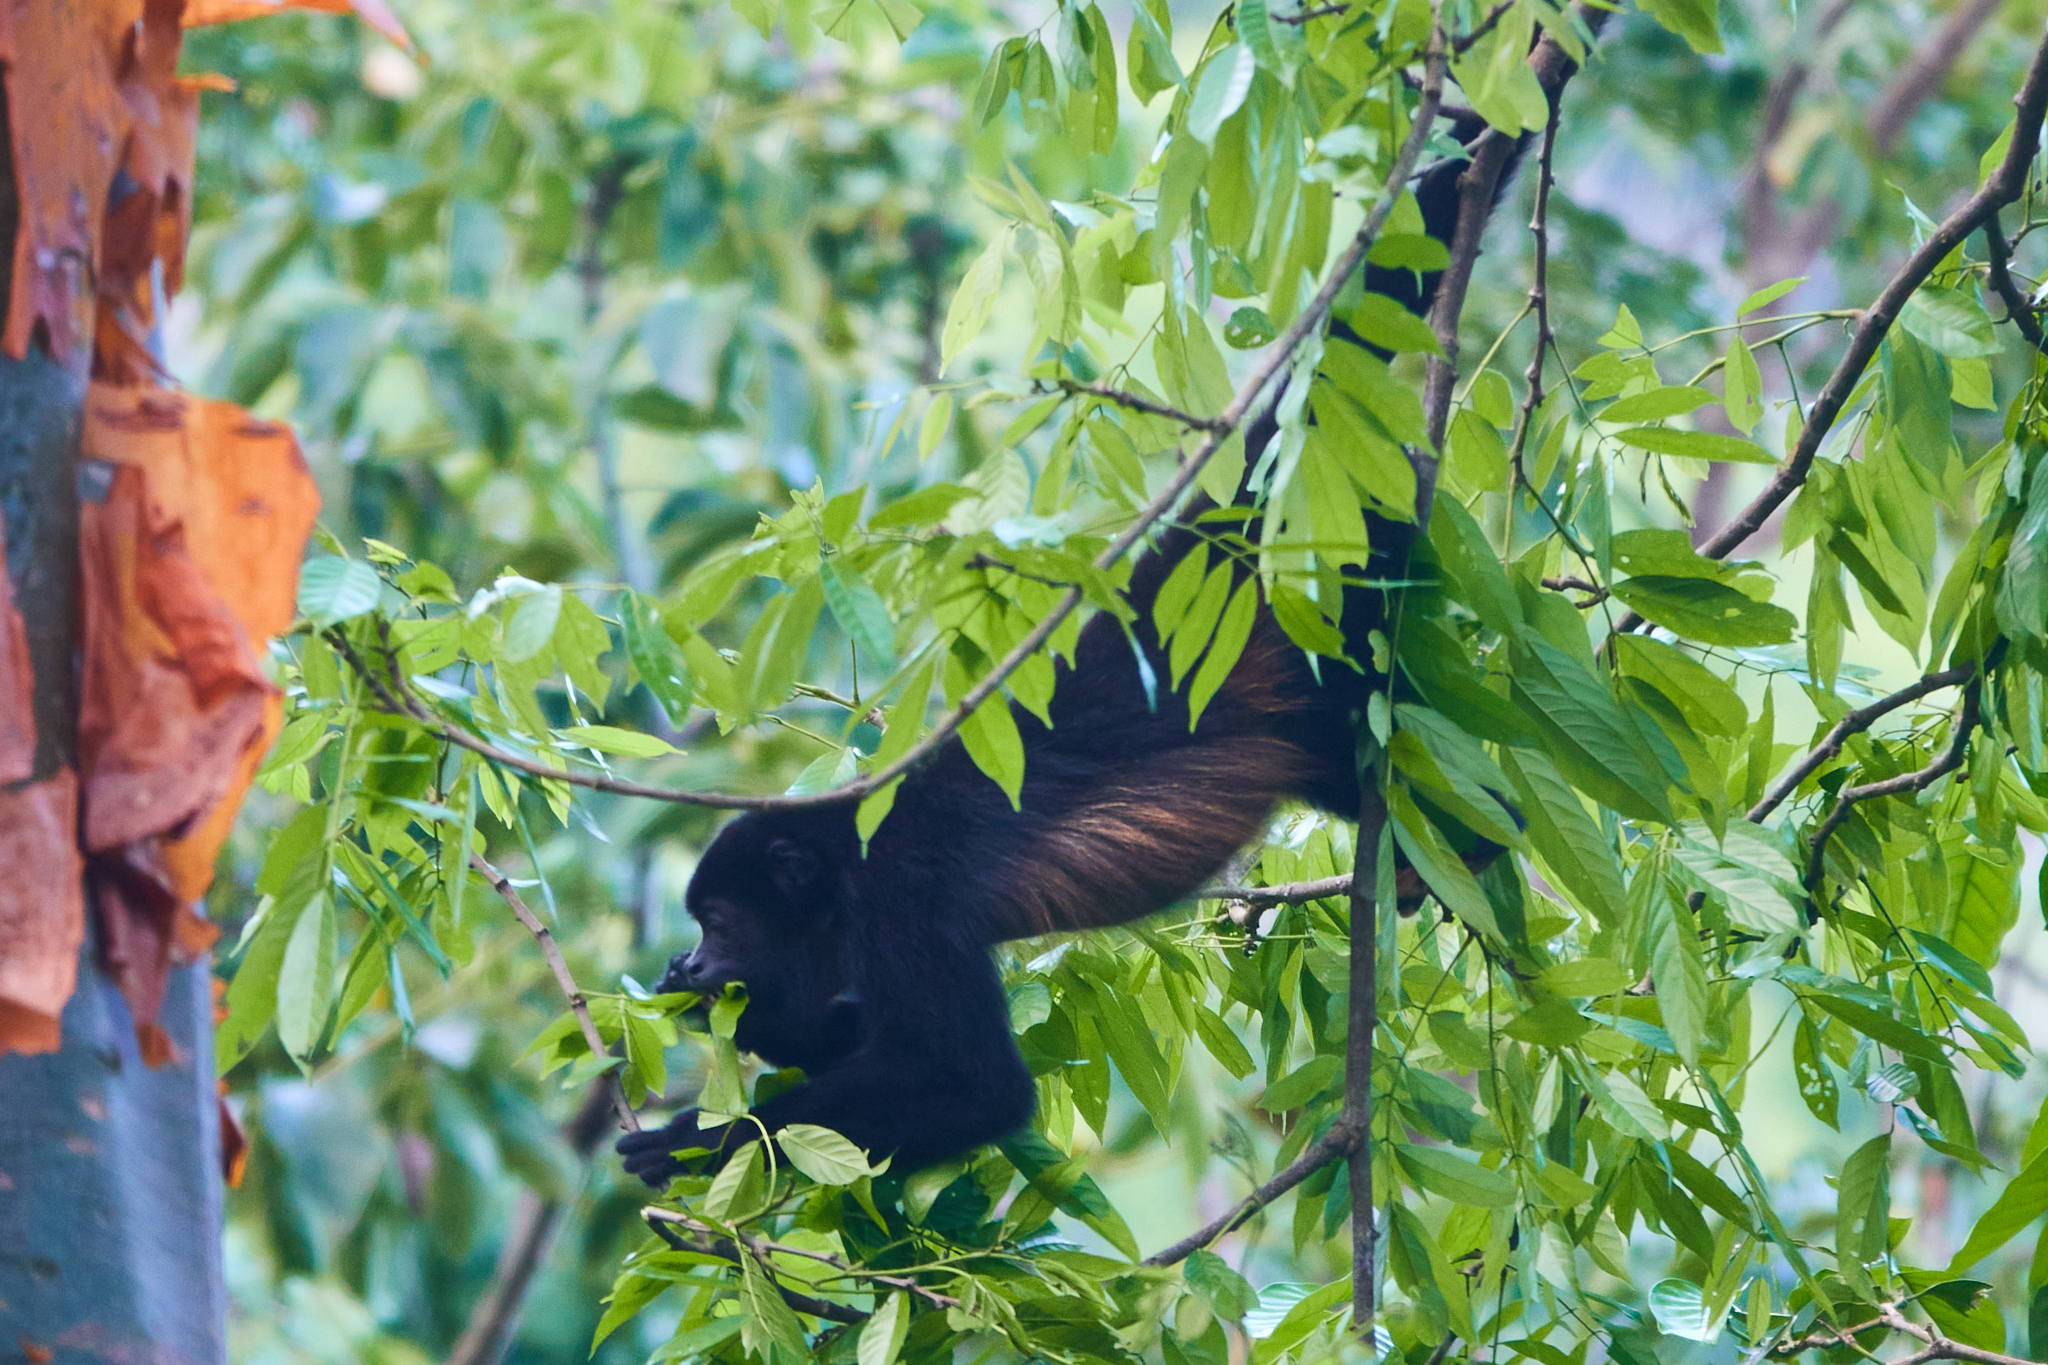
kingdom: Animalia
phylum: Chordata
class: Mammalia
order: Primates
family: Atelidae
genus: Alouatta
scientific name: Alouatta palliata
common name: Mantled howler
